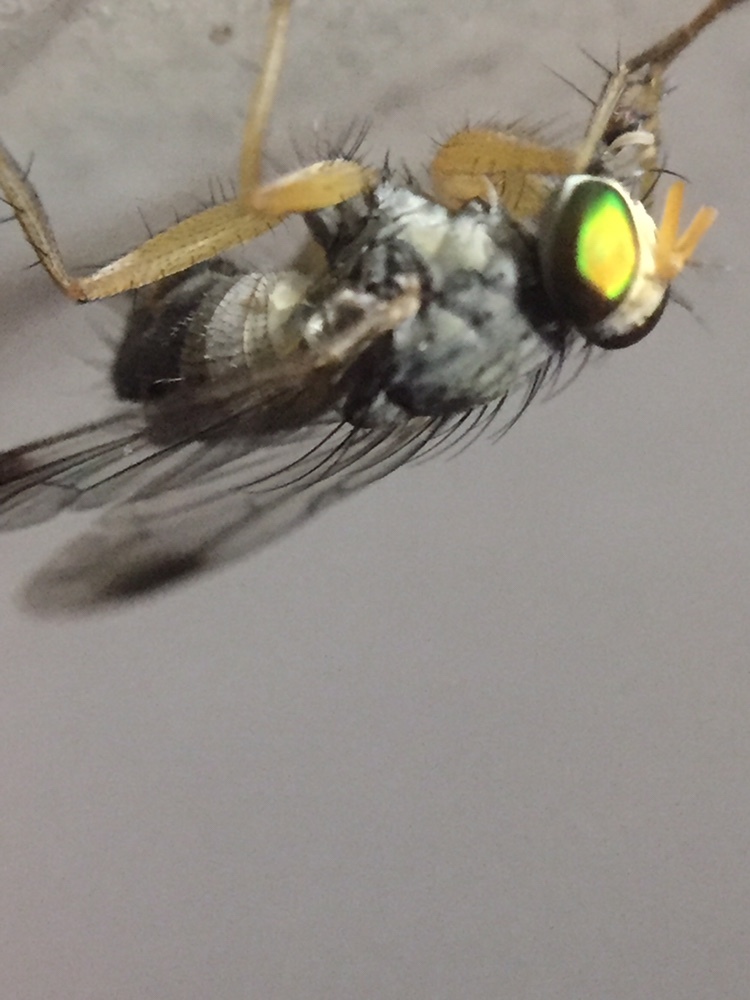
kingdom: Animalia
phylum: Arthropoda
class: Insecta
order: Diptera
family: Muscidae
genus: Pygophora
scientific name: Pygophora apicalis
